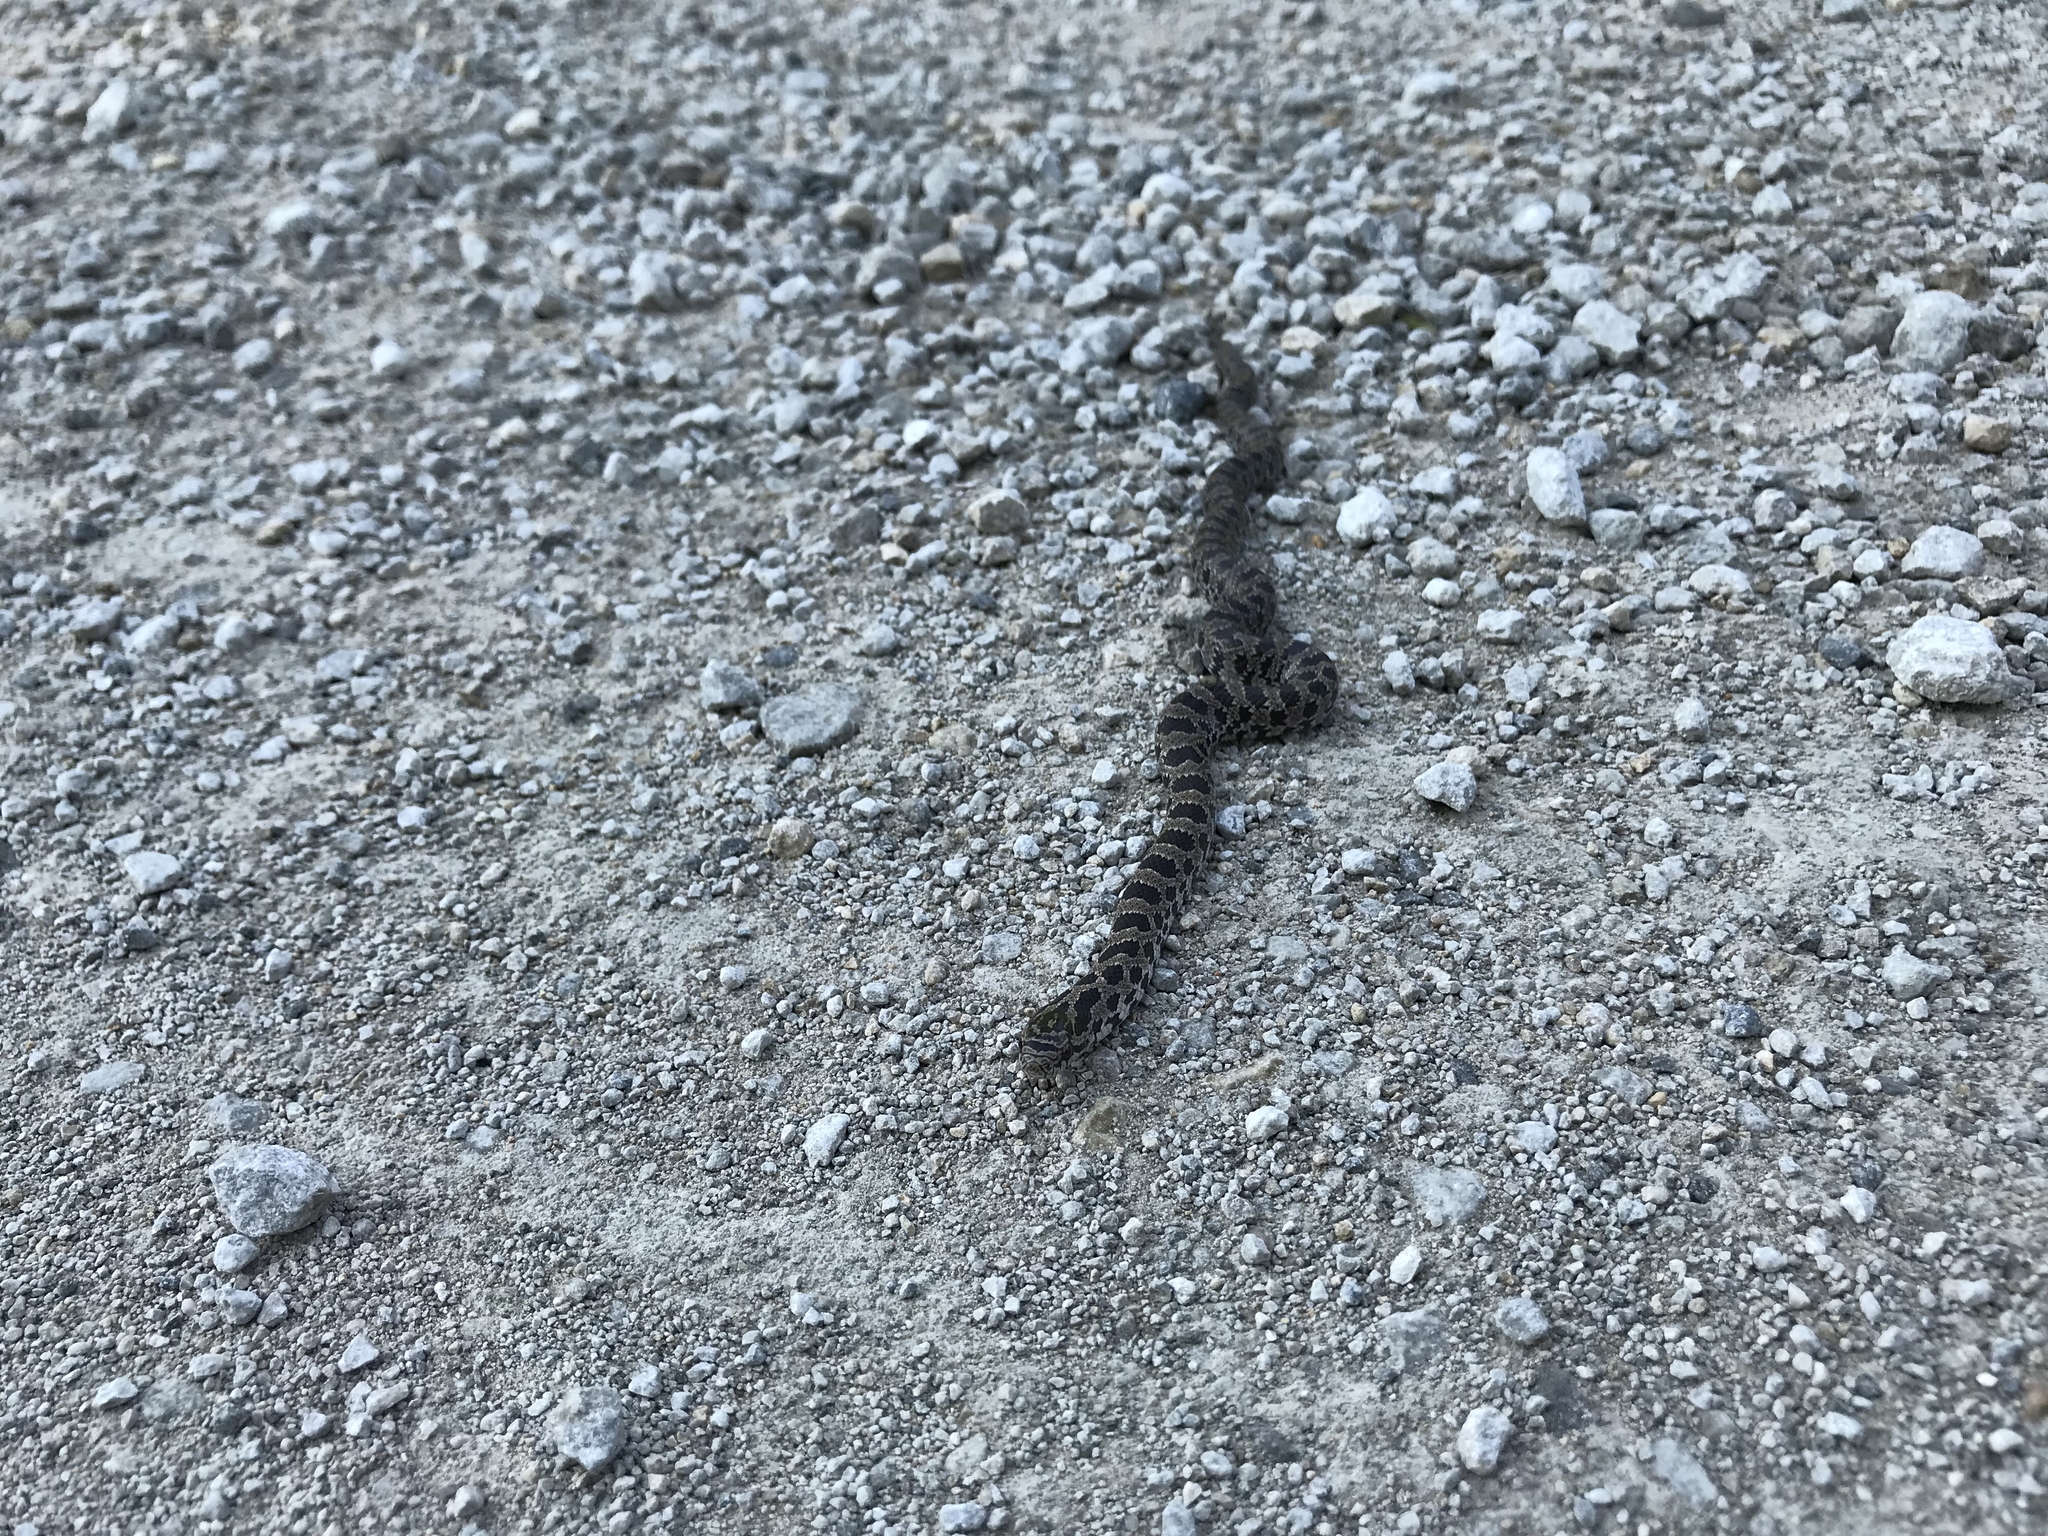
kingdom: Animalia
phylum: Chordata
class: Squamata
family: Colubridae
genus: Lampropeltis
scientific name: Lampropeltis calligaster
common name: Prairie kingsnake
